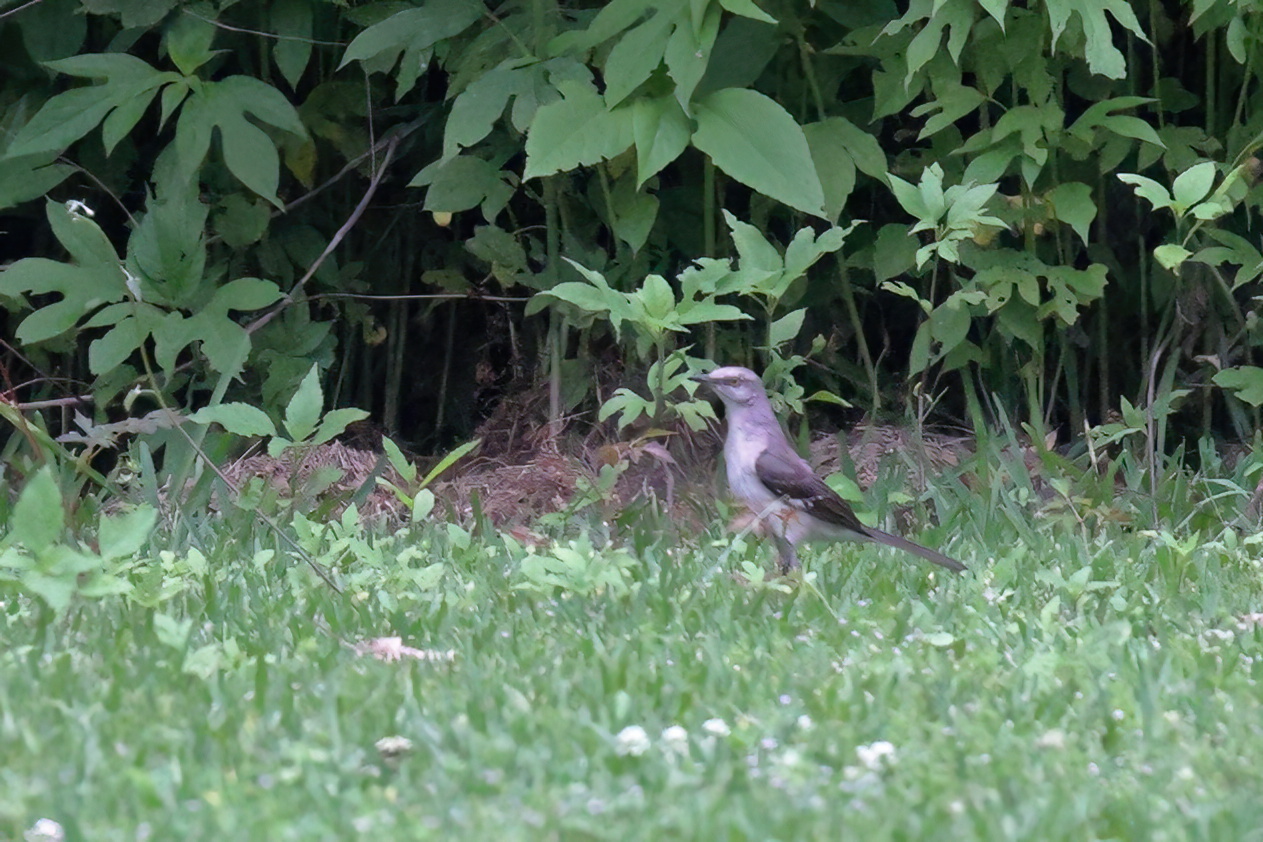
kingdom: Animalia
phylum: Chordata
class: Aves
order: Passeriformes
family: Mimidae
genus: Mimus
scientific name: Mimus polyglottos
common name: Northern mockingbird
